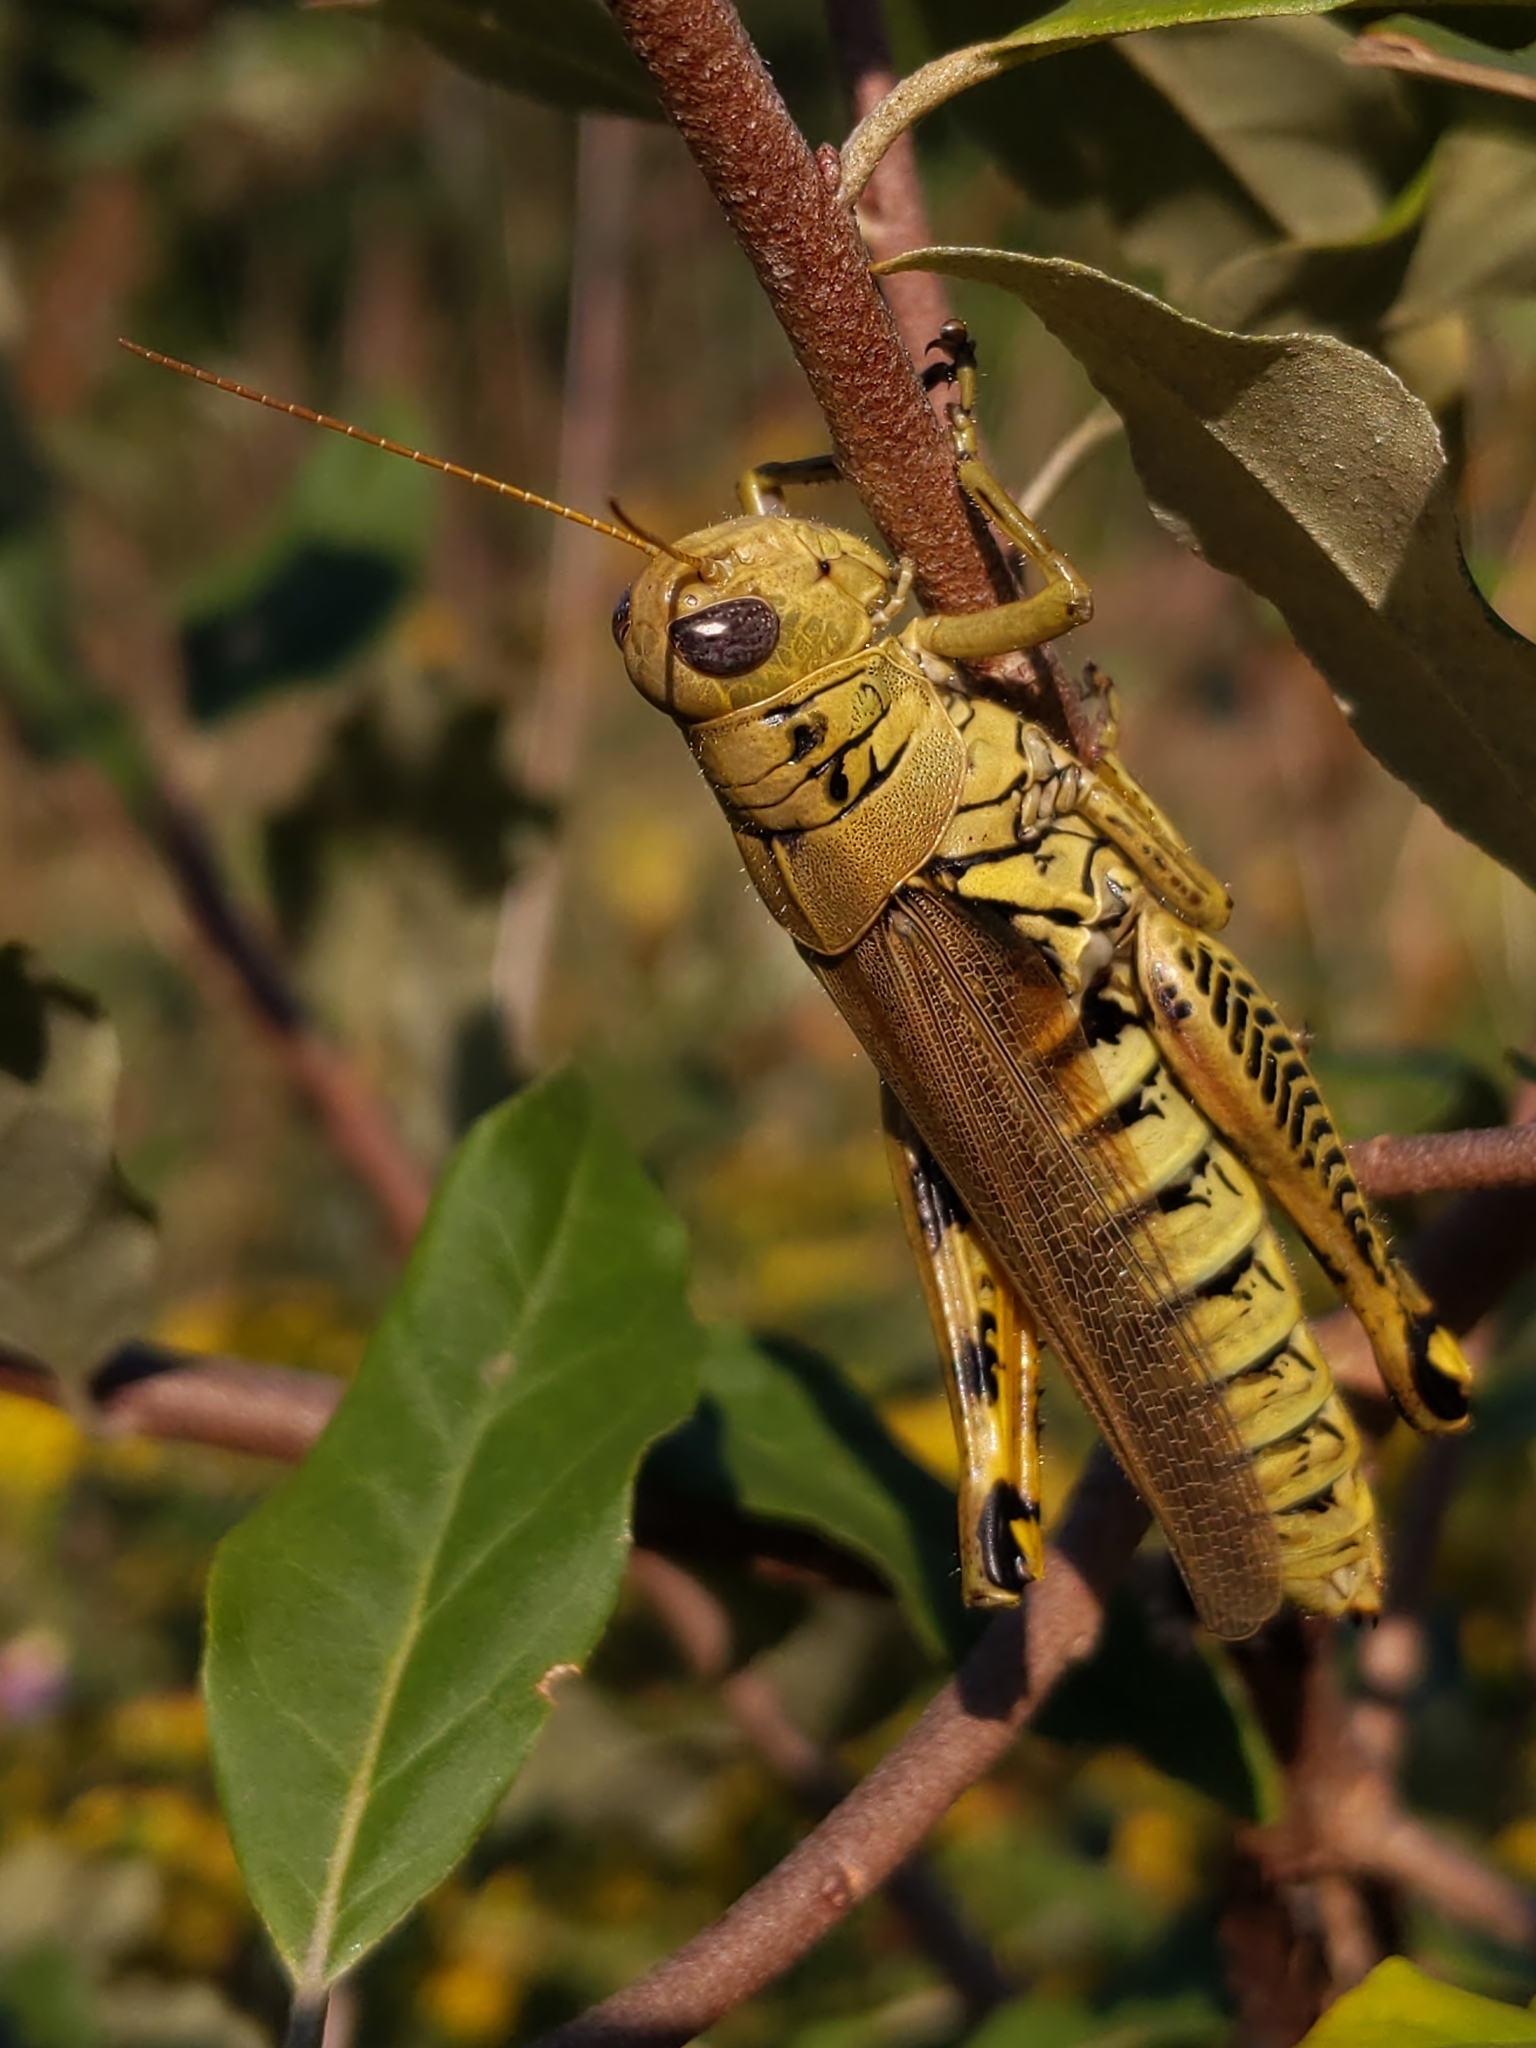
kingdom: Animalia
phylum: Arthropoda
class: Insecta
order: Orthoptera
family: Acrididae
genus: Melanoplus
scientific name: Melanoplus differentialis
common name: Differential grasshopper
